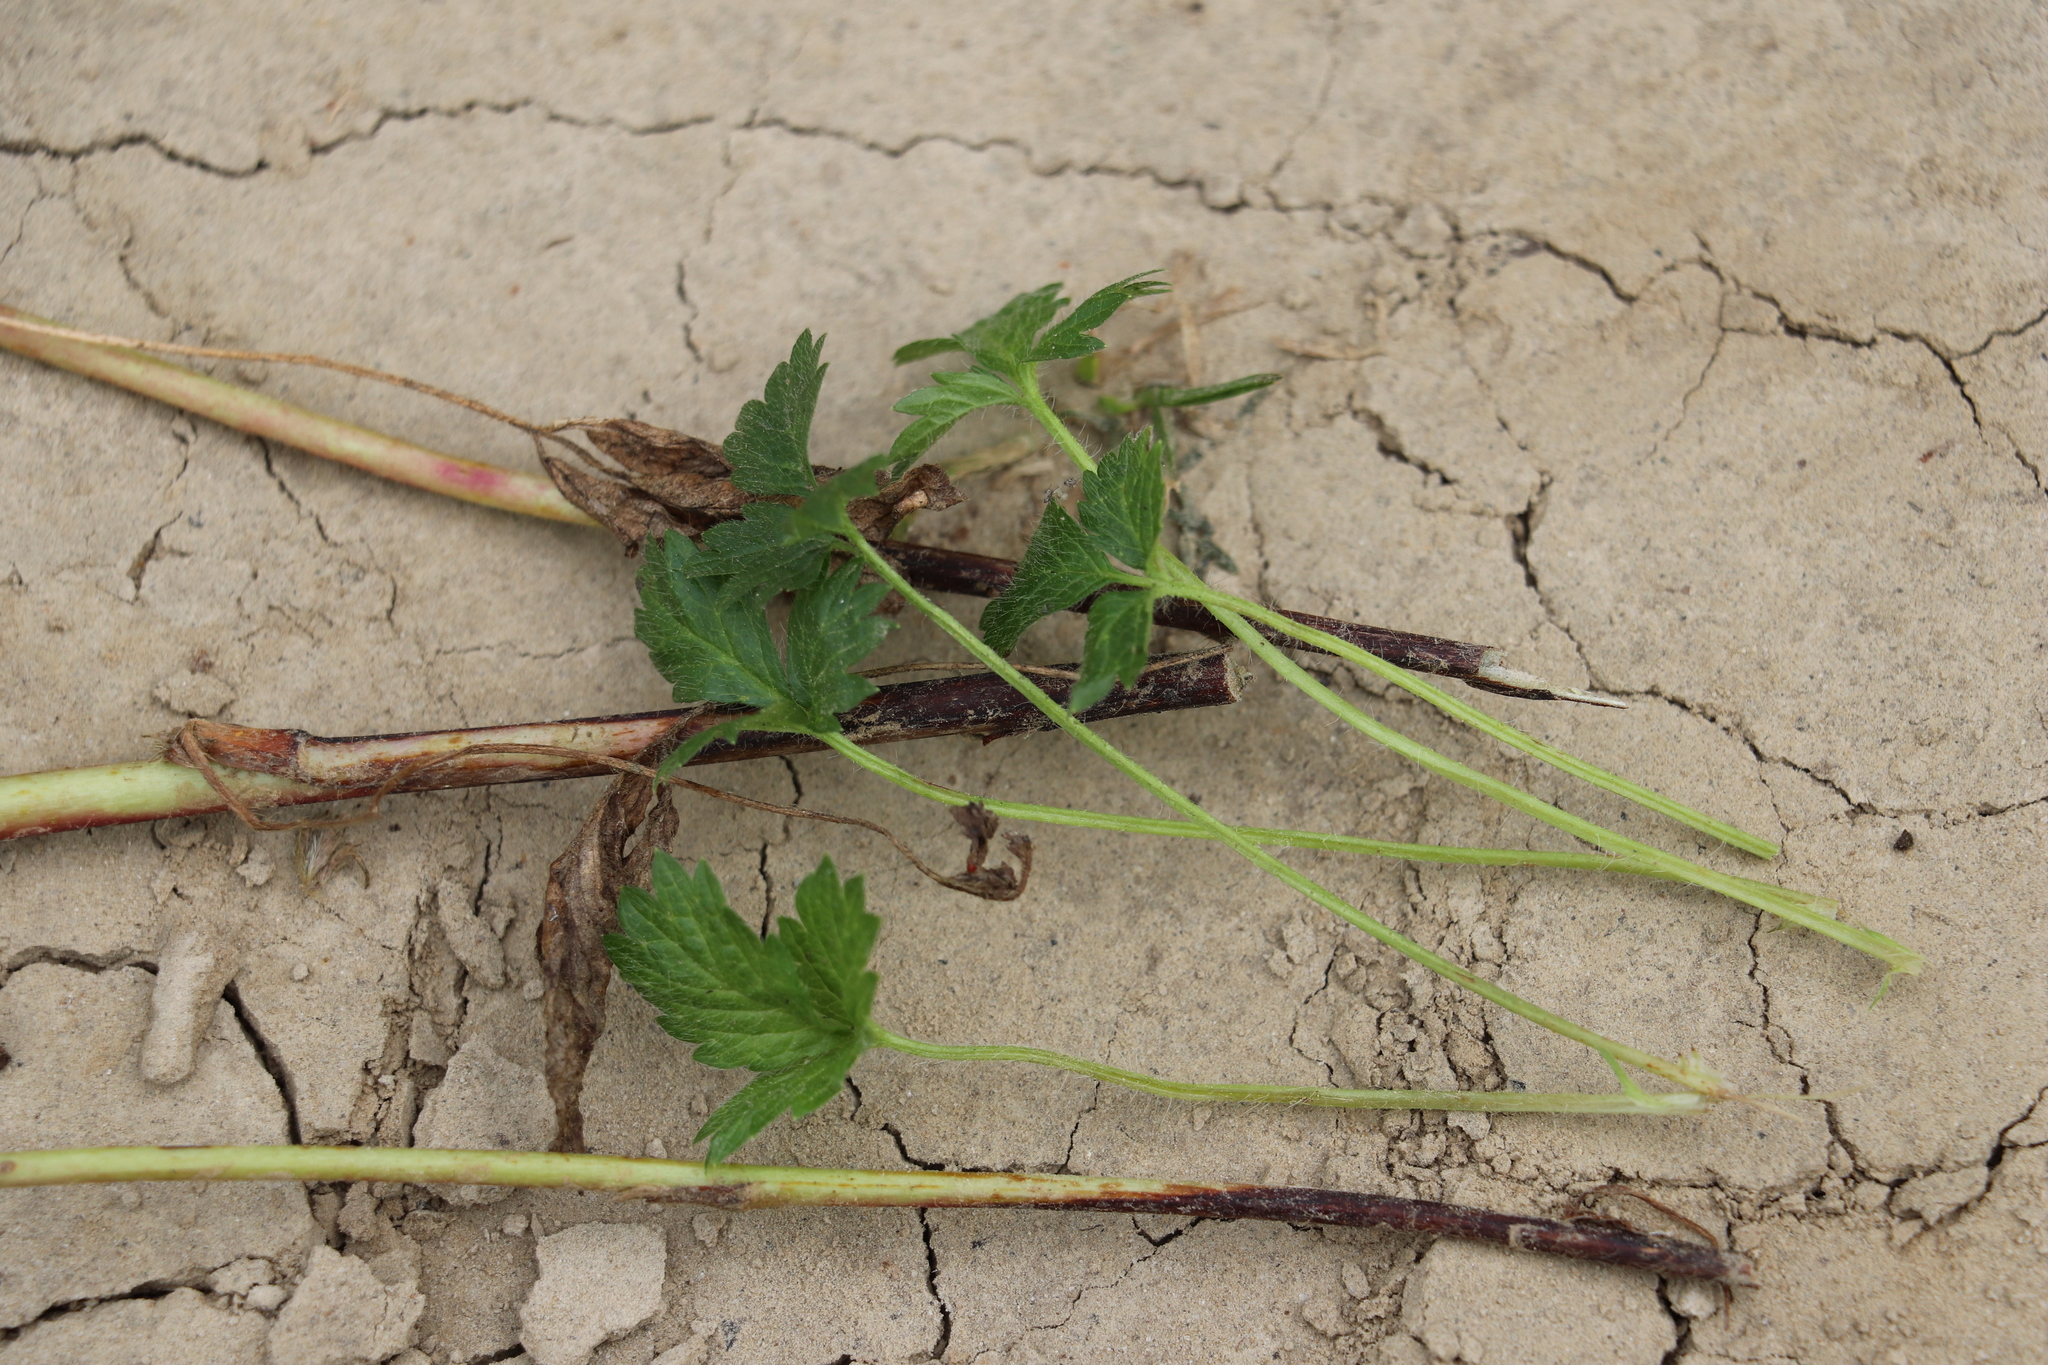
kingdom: Plantae
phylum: Tracheophyta
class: Magnoliopsida
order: Rosales
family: Rosaceae
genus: Potentilla
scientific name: Potentilla norvegica
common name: Ternate-leaved cinquefoil
